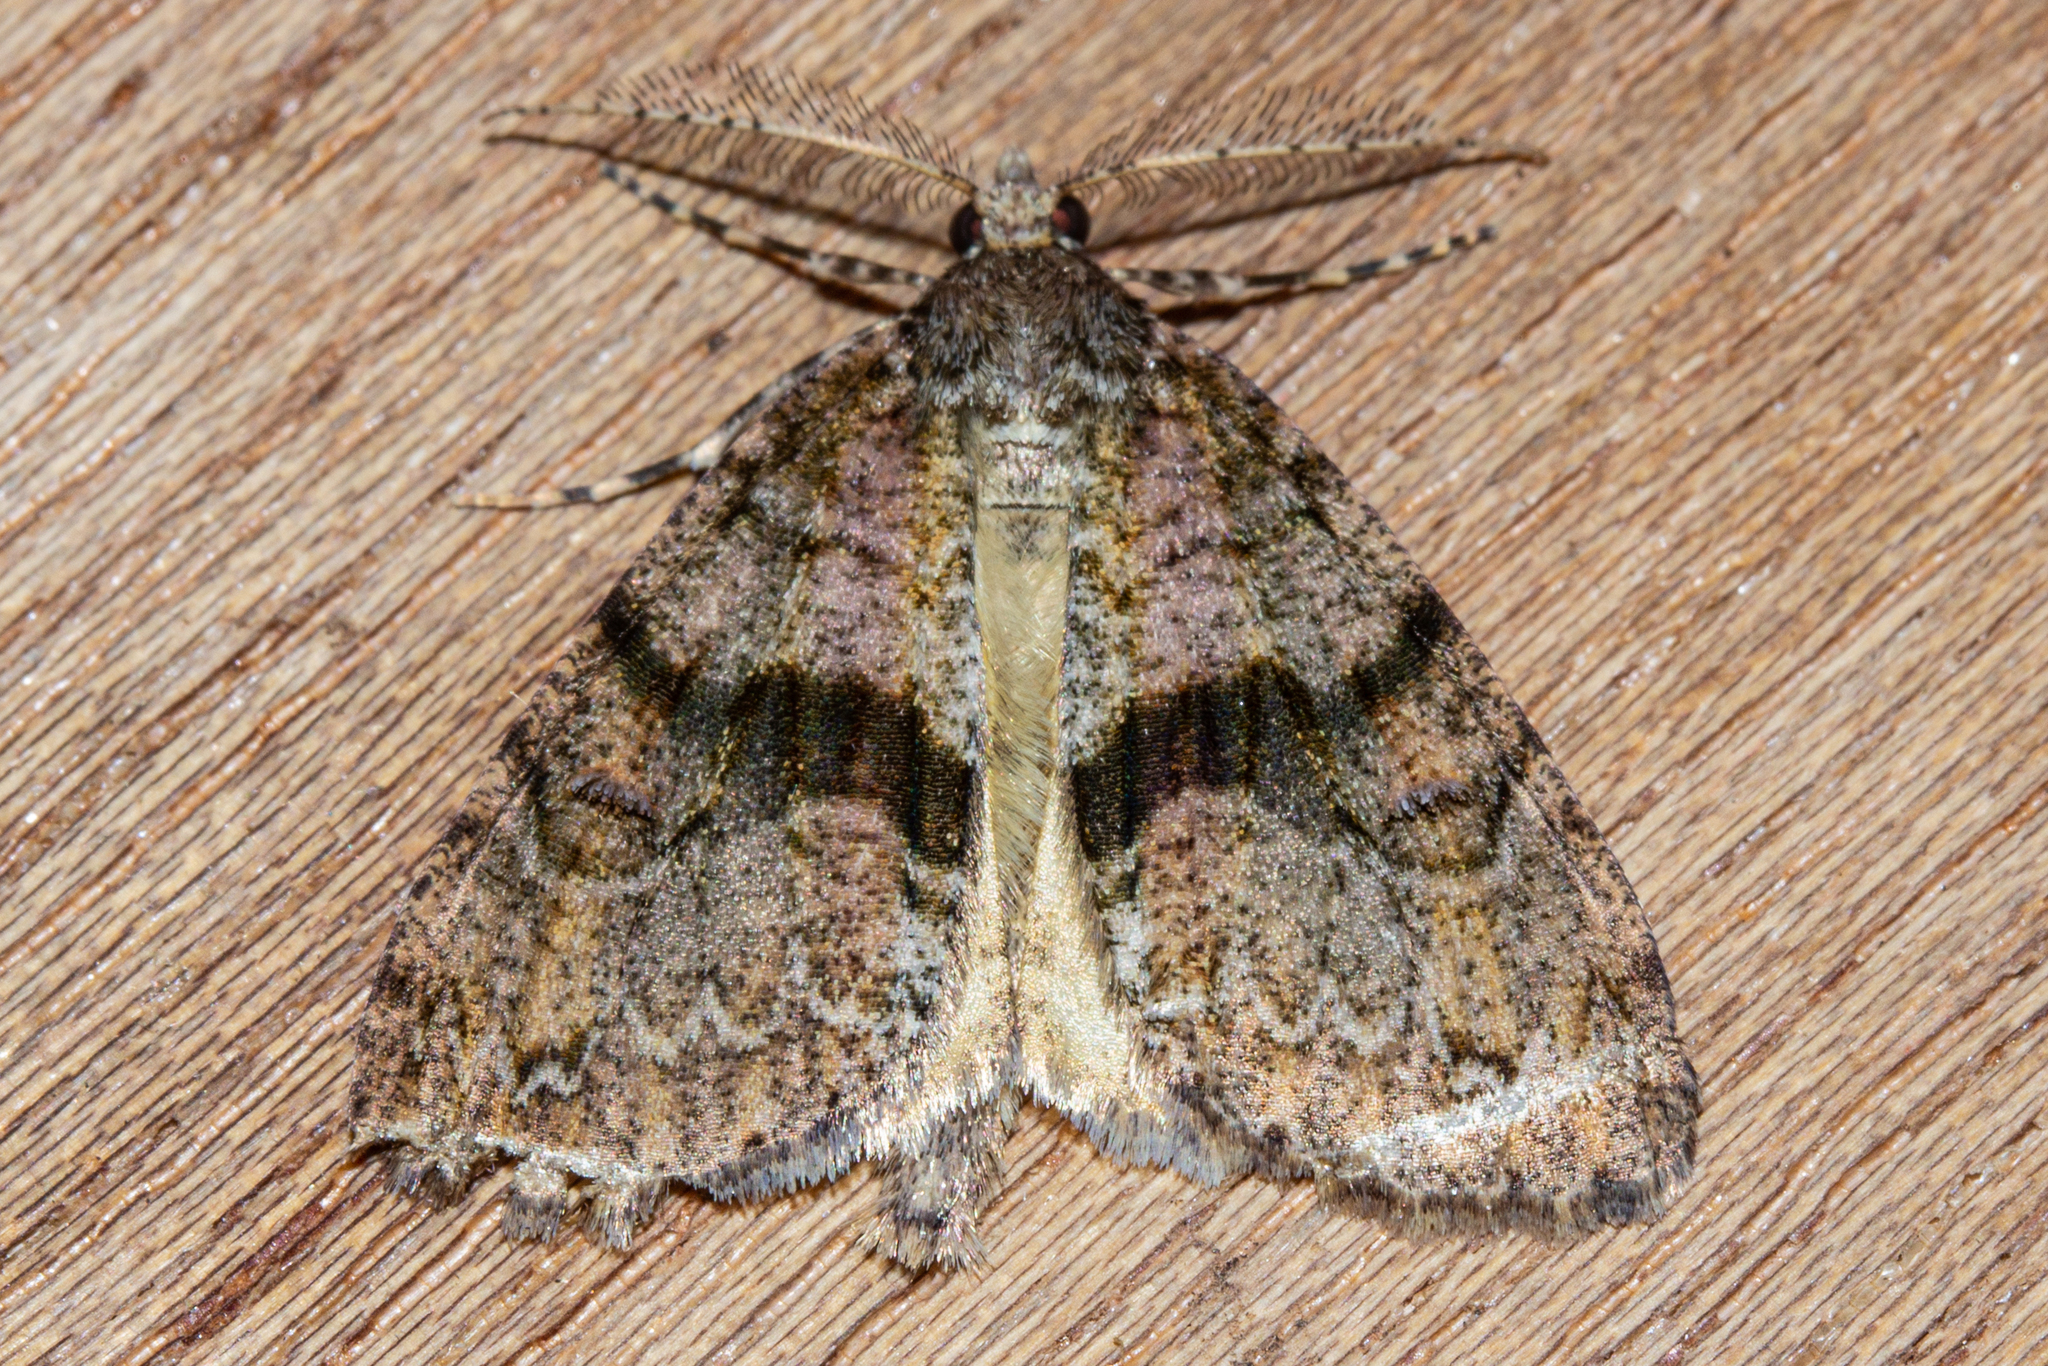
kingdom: Animalia
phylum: Arthropoda
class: Insecta
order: Lepidoptera
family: Geometridae
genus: Pseudocoremia
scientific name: Pseudocoremia suavis
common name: Common forest looper
